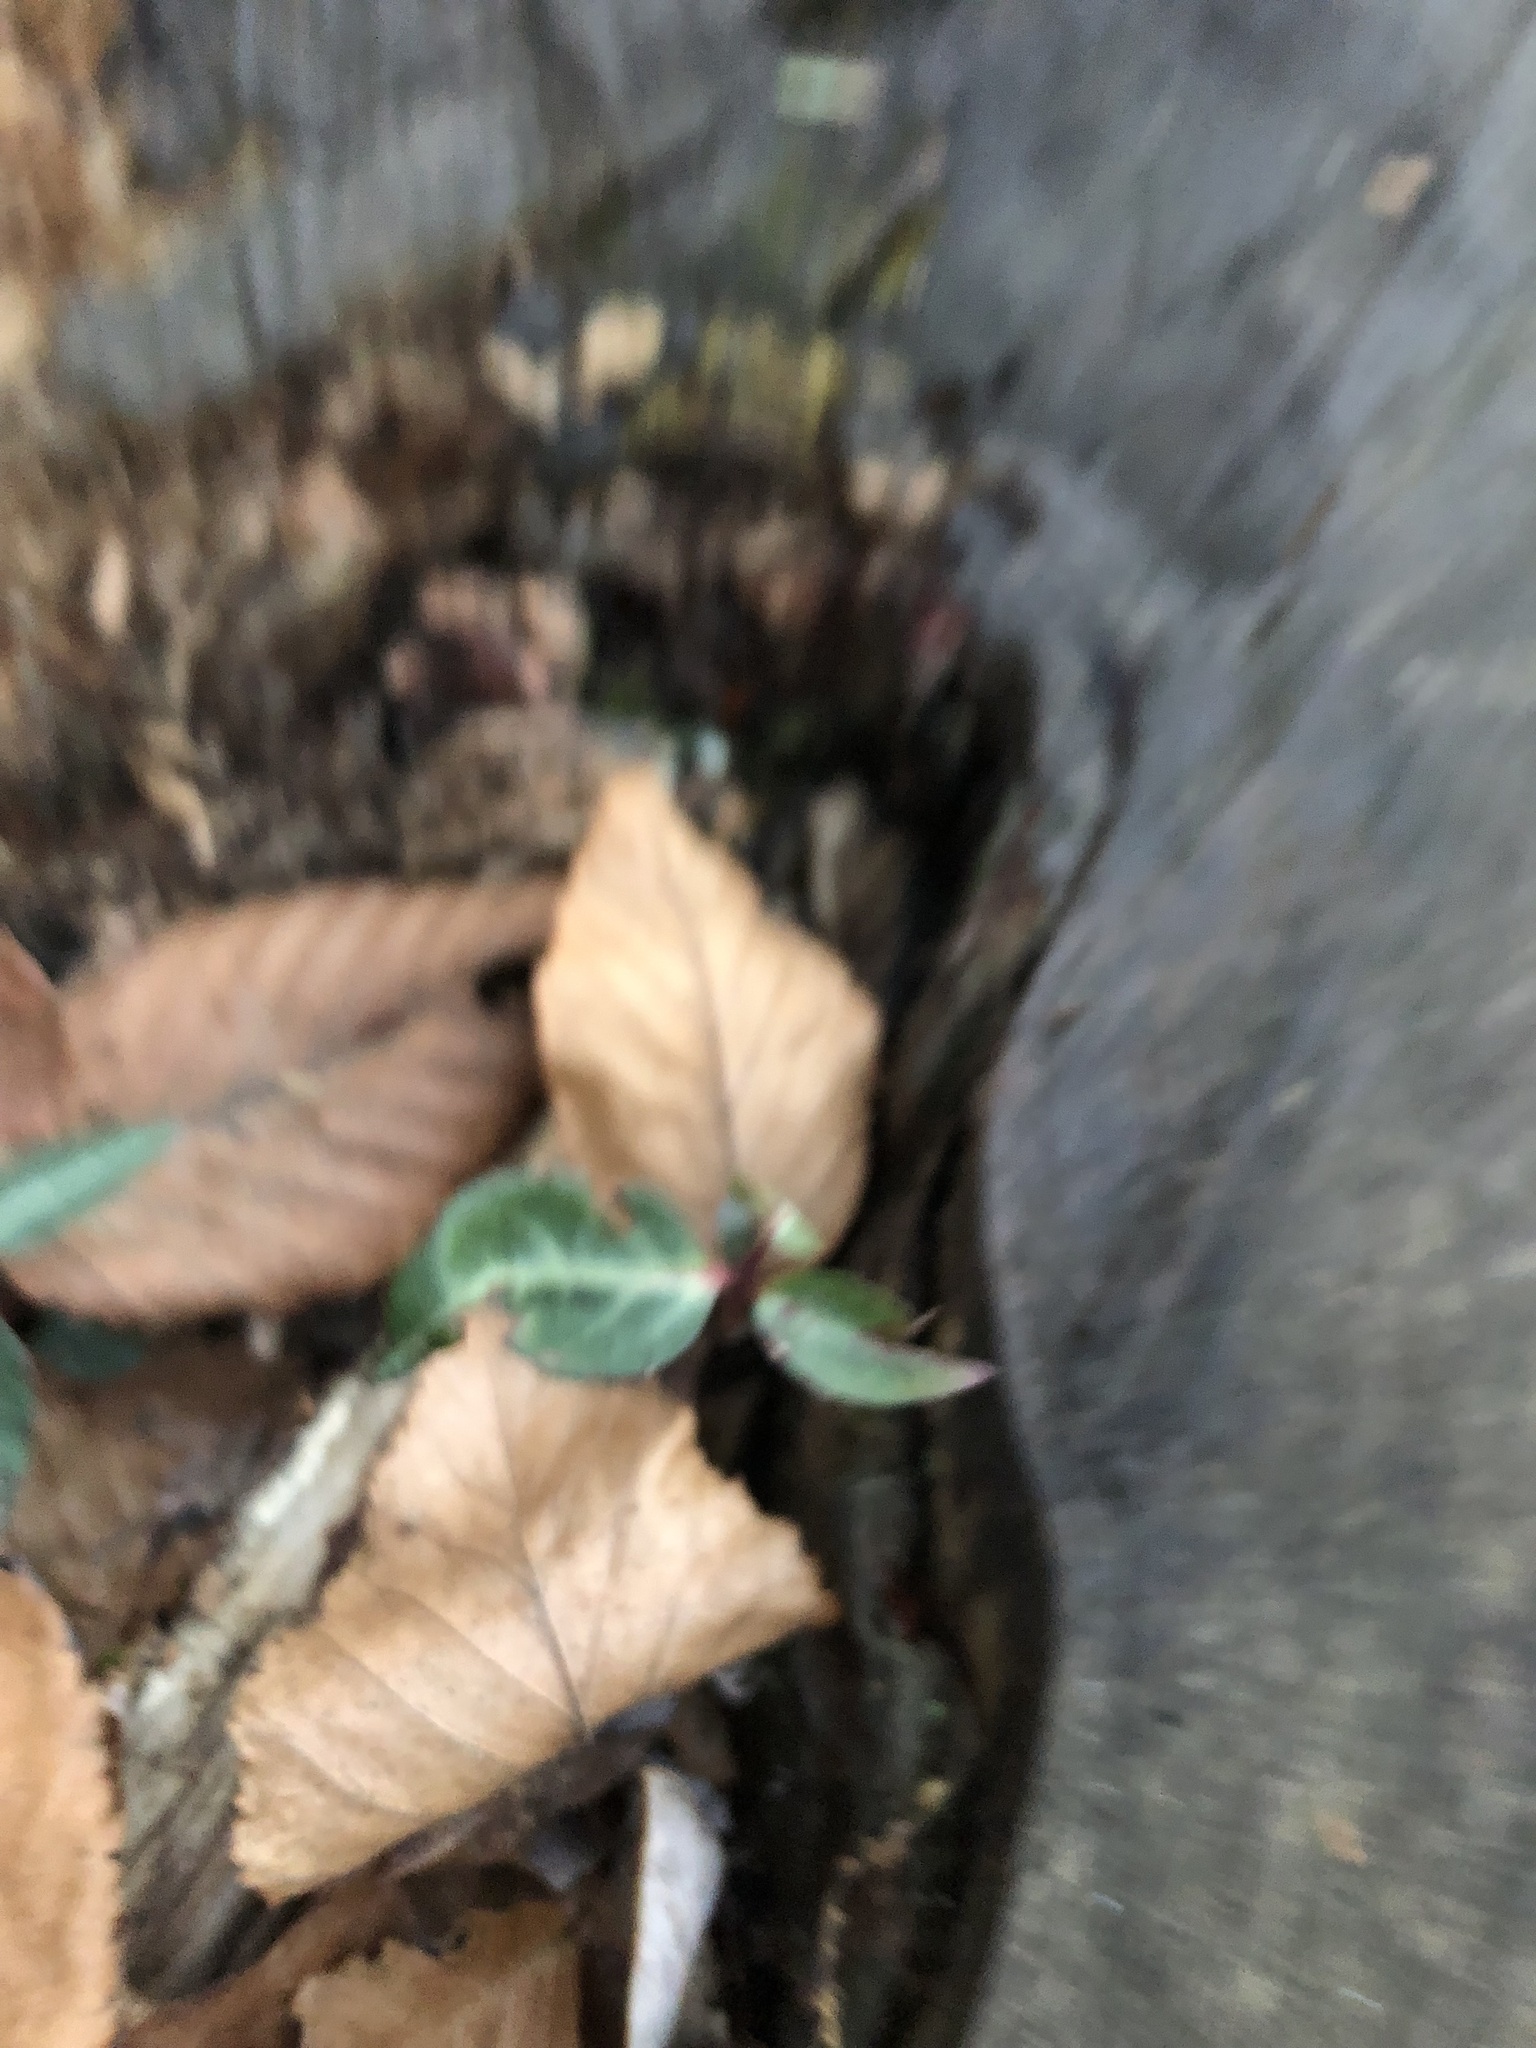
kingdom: Plantae
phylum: Tracheophyta
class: Magnoliopsida
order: Ericales
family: Ericaceae
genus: Chimaphila
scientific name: Chimaphila maculata
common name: Spotted pipsissewa
